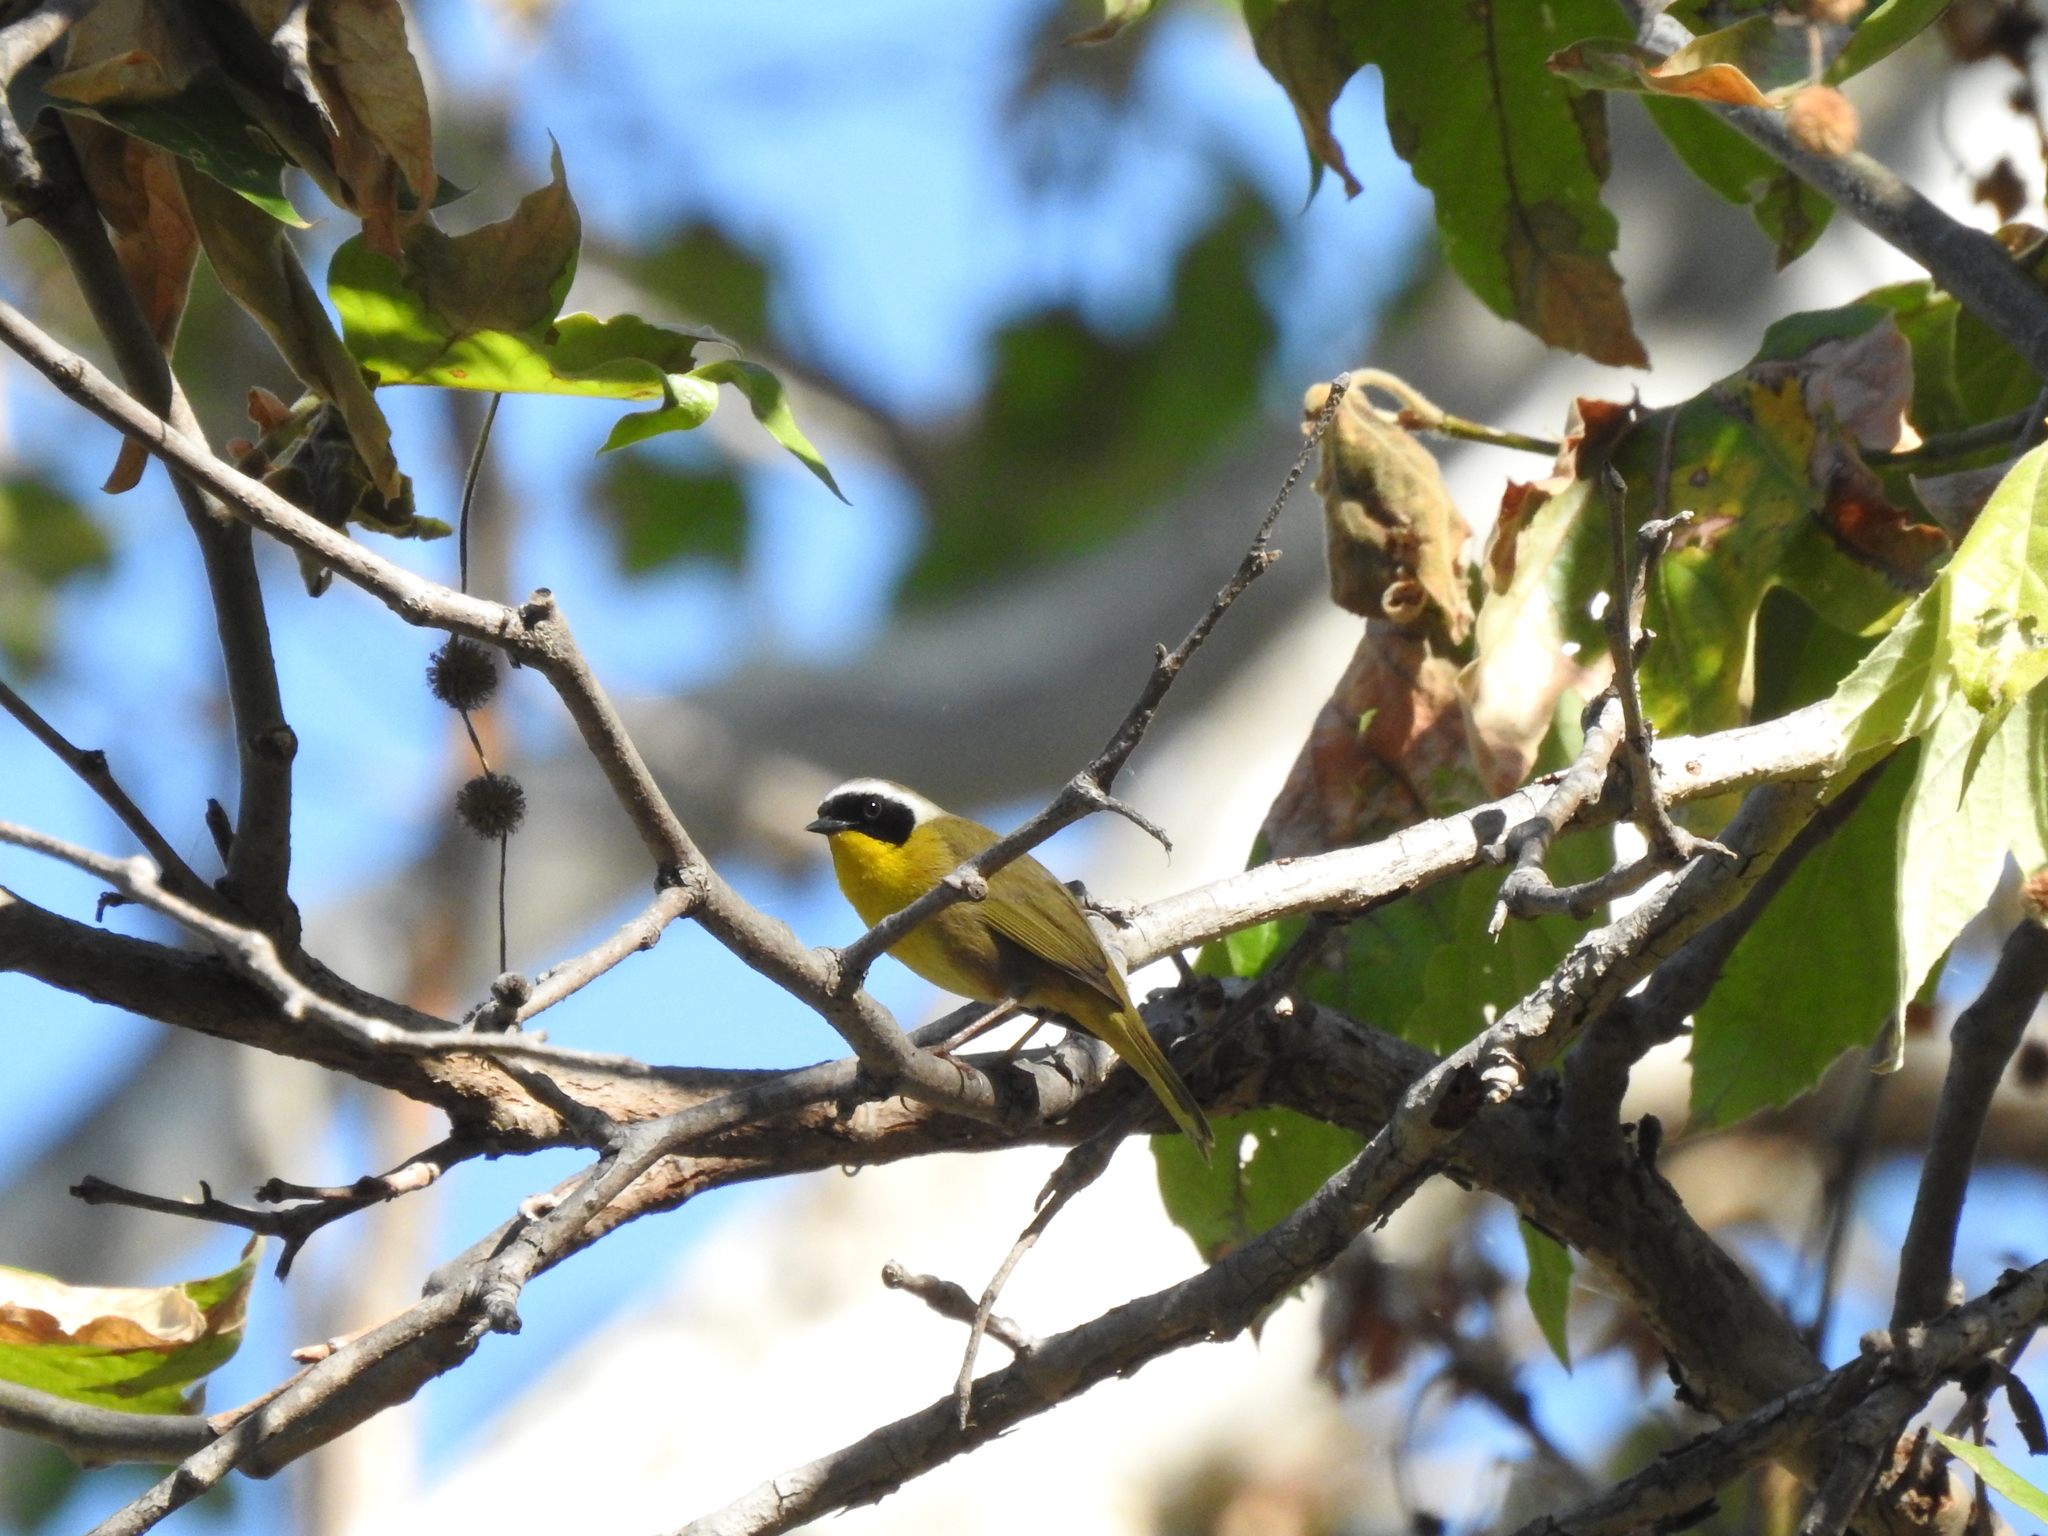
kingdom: Animalia
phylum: Chordata
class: Aves
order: Passeriformes
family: Parulidae
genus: Geothlypis
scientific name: Geothlypis trichas
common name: Common yellowthroat
